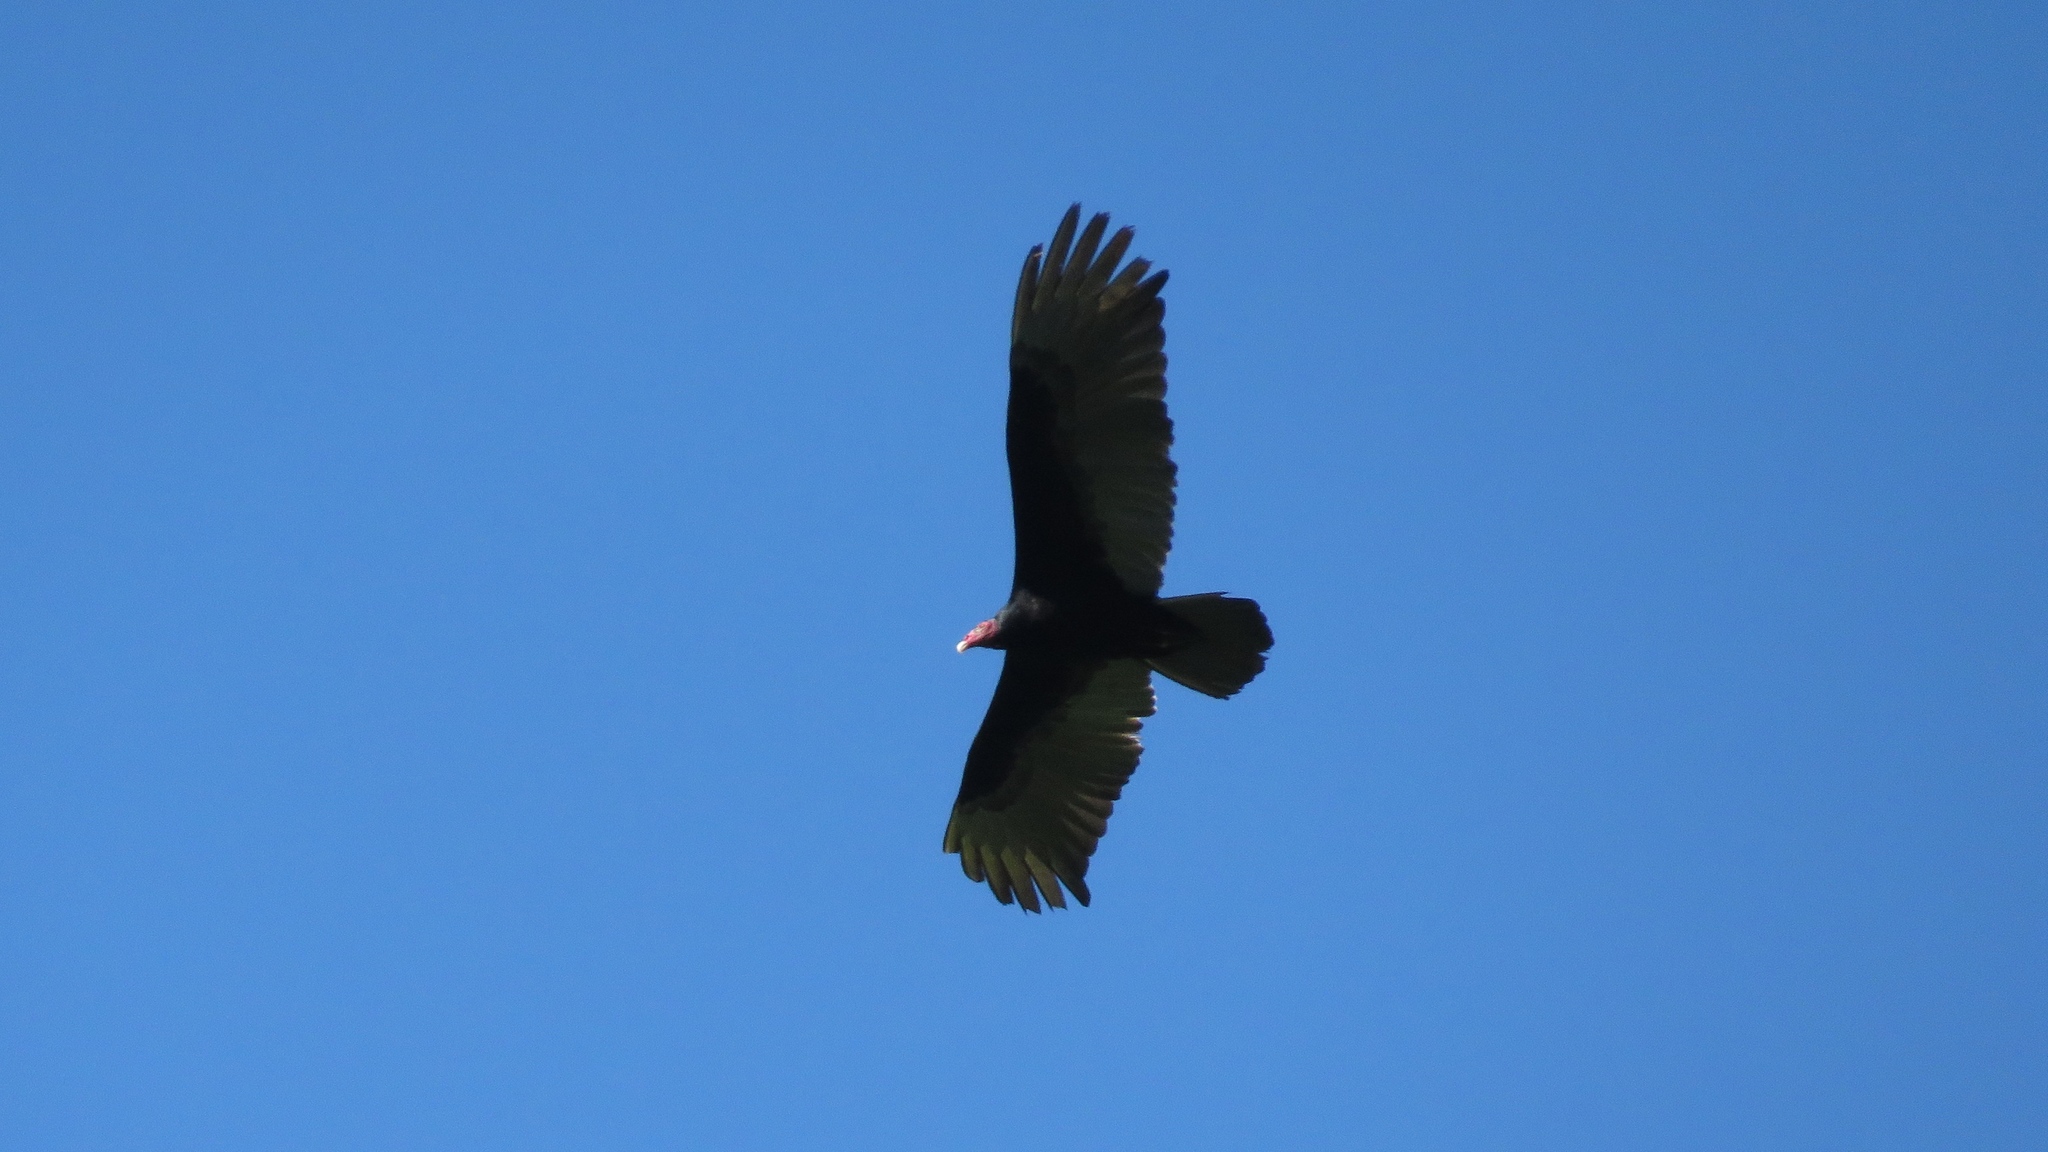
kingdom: Animalia
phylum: Chordata
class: Aves
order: Accipitriformes
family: Cathartidae
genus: Cathartes
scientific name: Cathartes aura
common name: Turkey vulture
